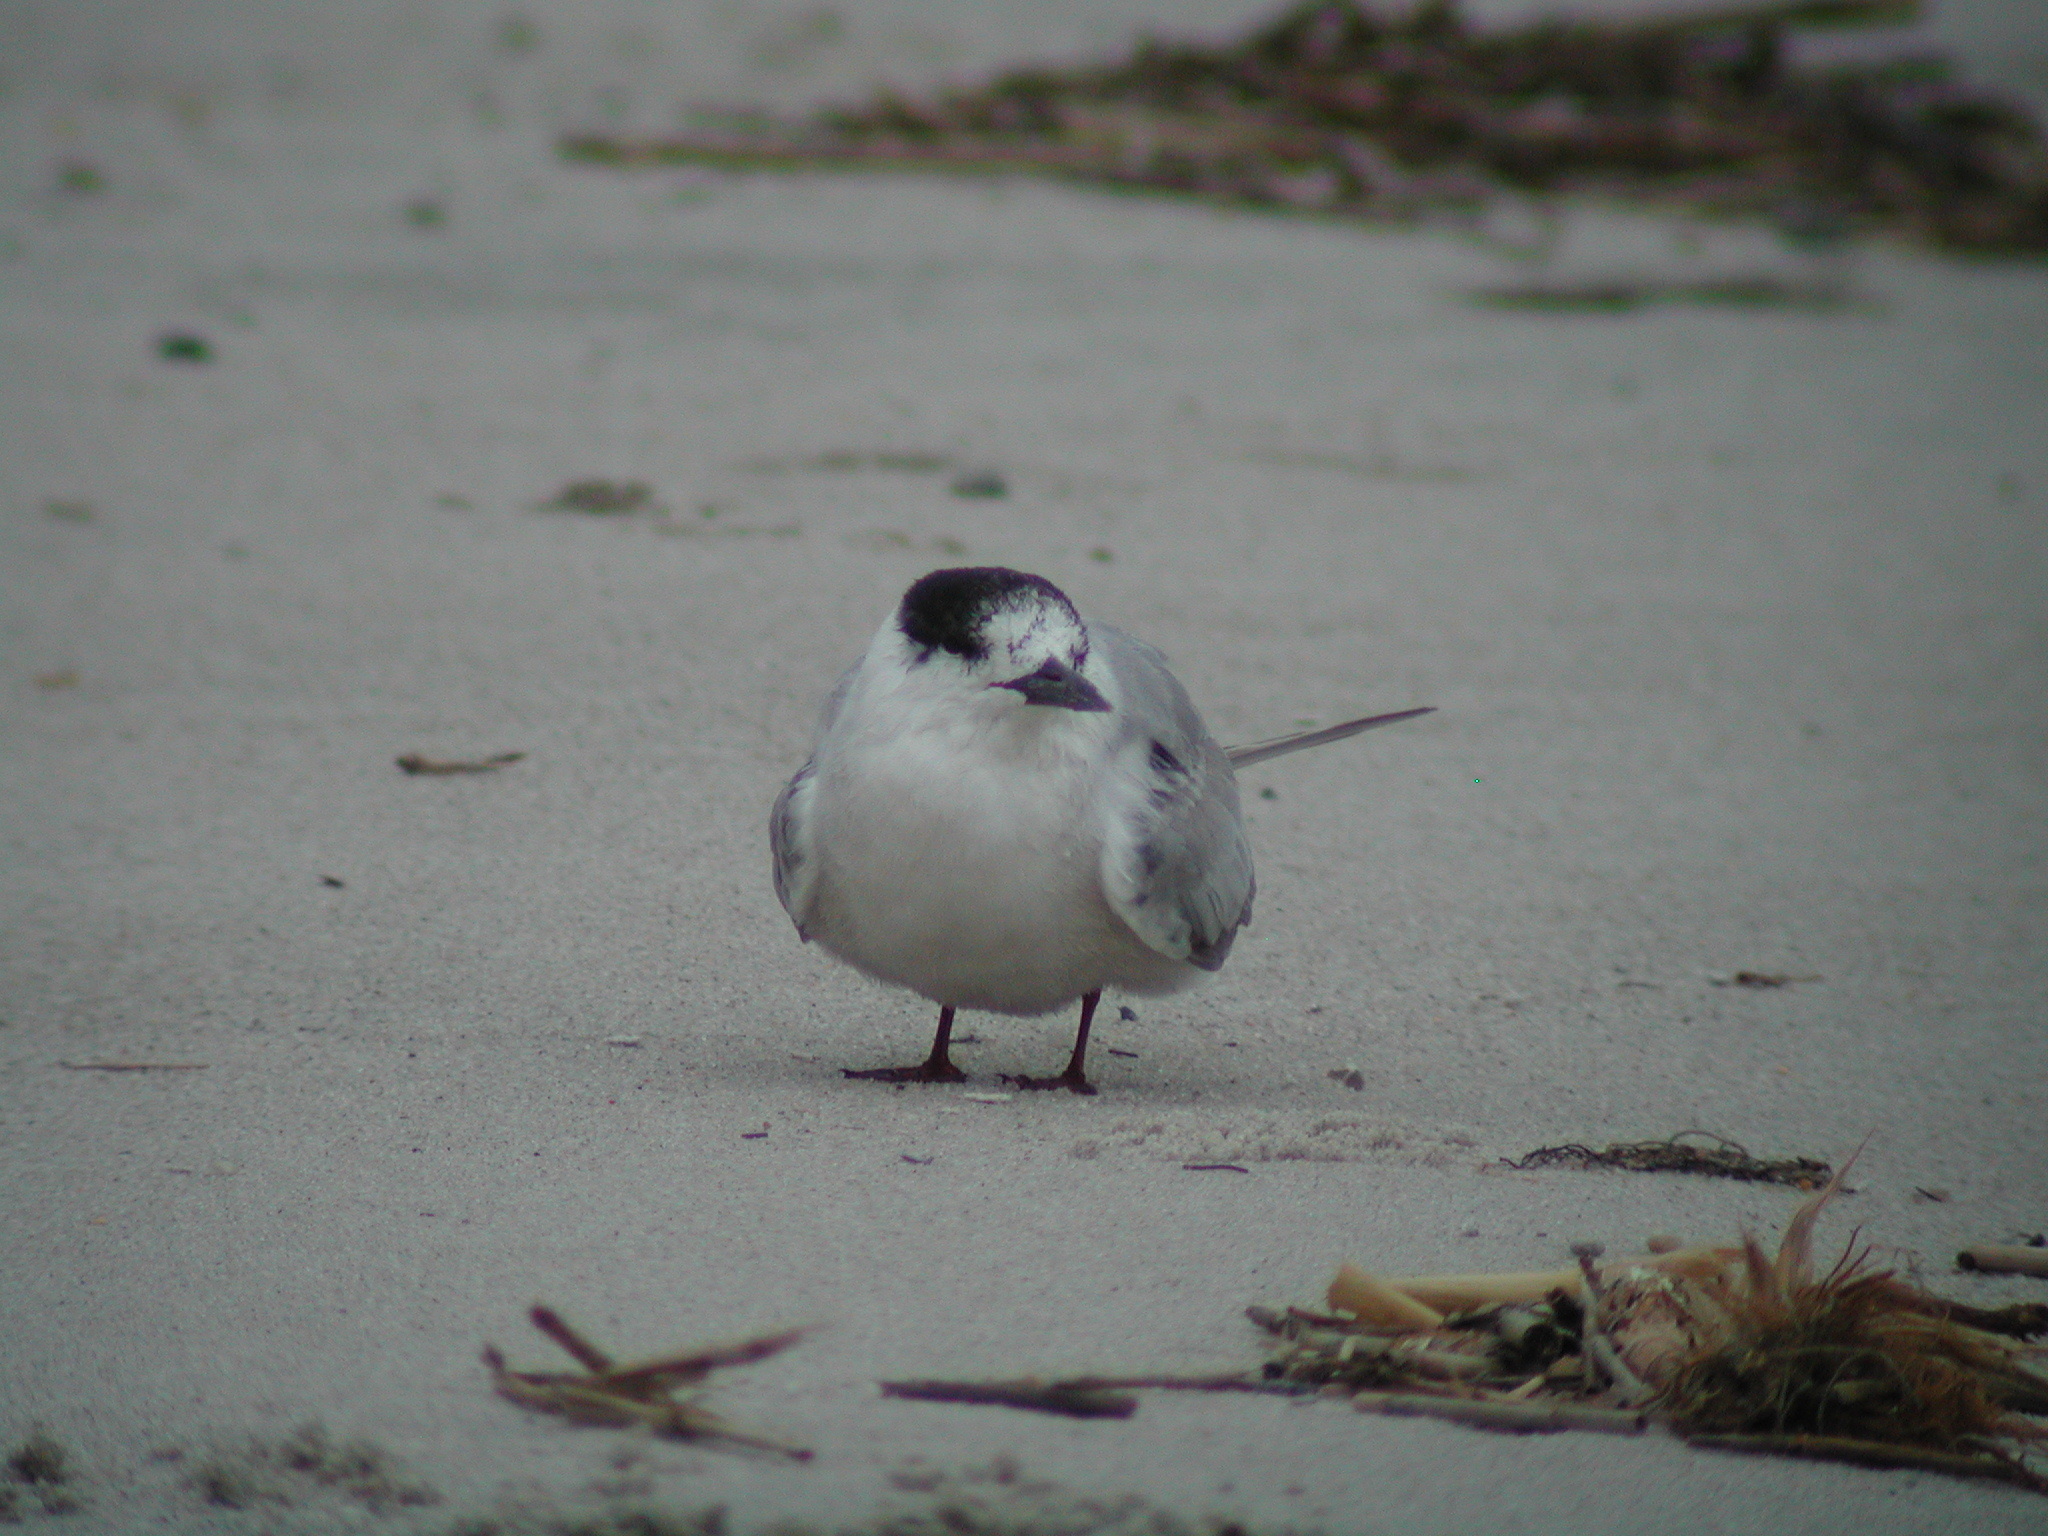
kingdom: Animalia
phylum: Chordata
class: Aves
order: Charadriiformes
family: Laridae
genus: Sterna
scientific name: Sterna hirundo
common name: Common tern
